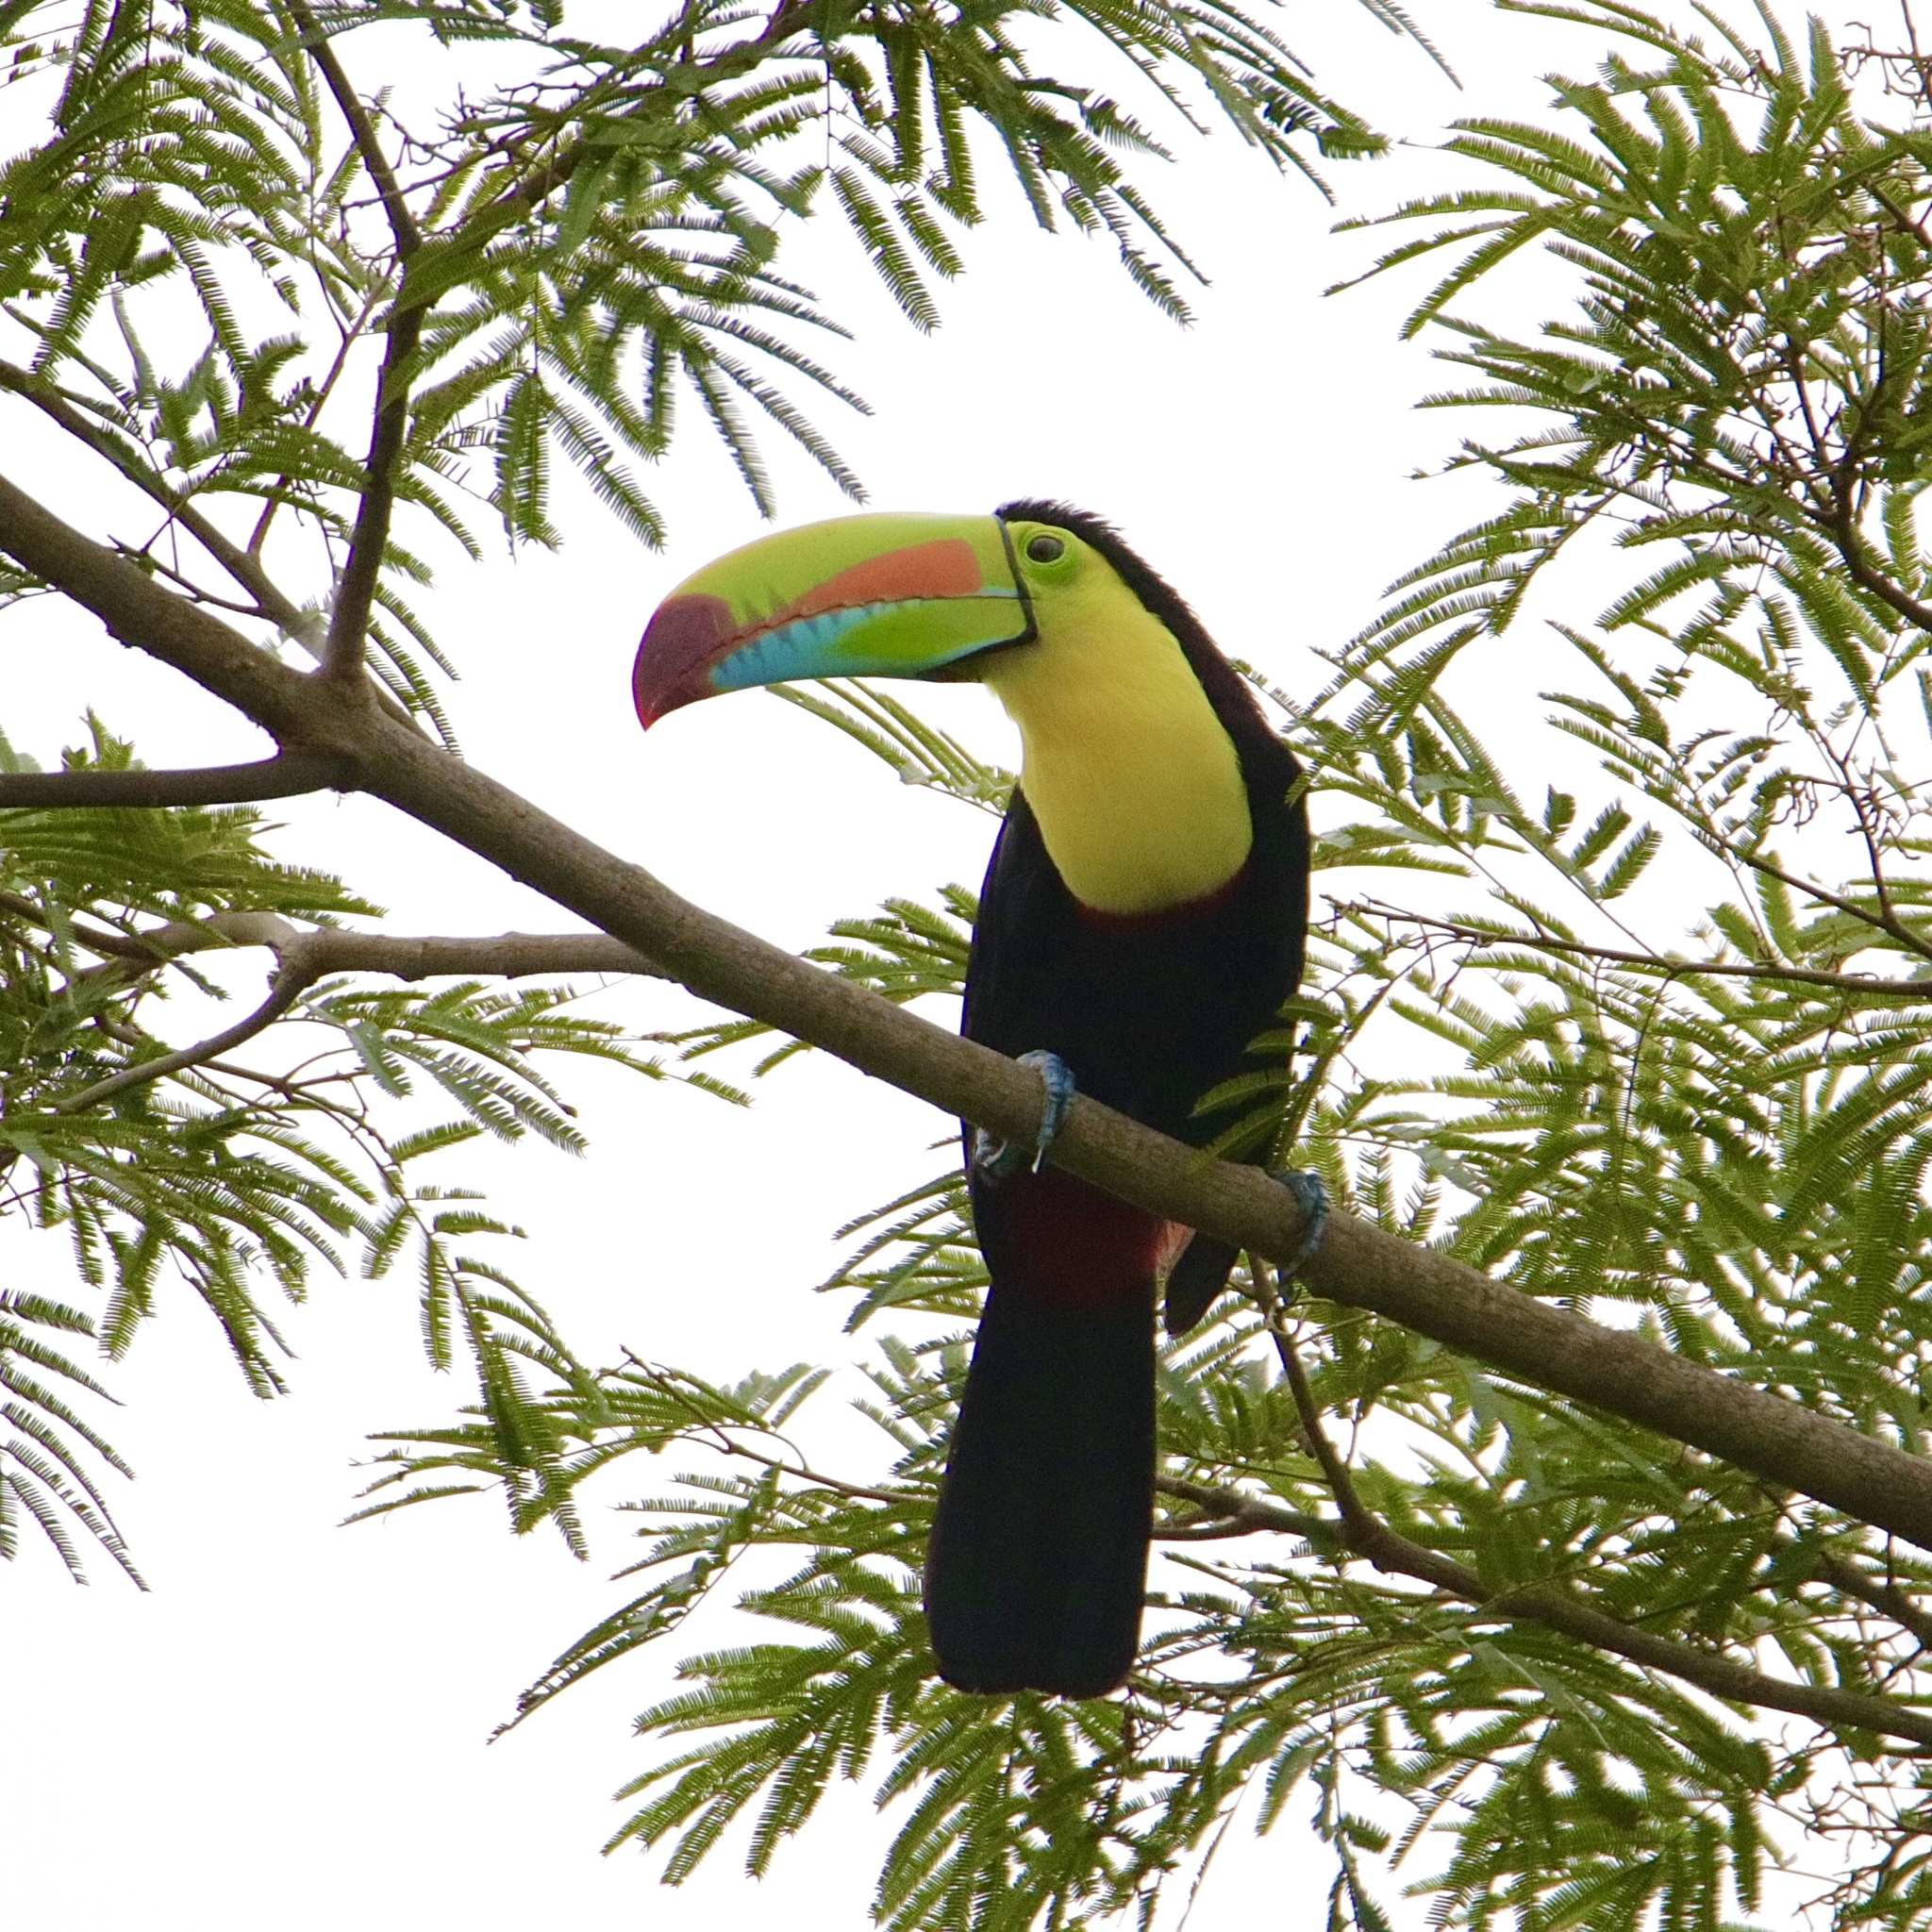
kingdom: Animalia
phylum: Chordata
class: Aves
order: Piciformes
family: Ramphastidae
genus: Ramphastos
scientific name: Ramphastos sulfuratus
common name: Keel-billed toucan
